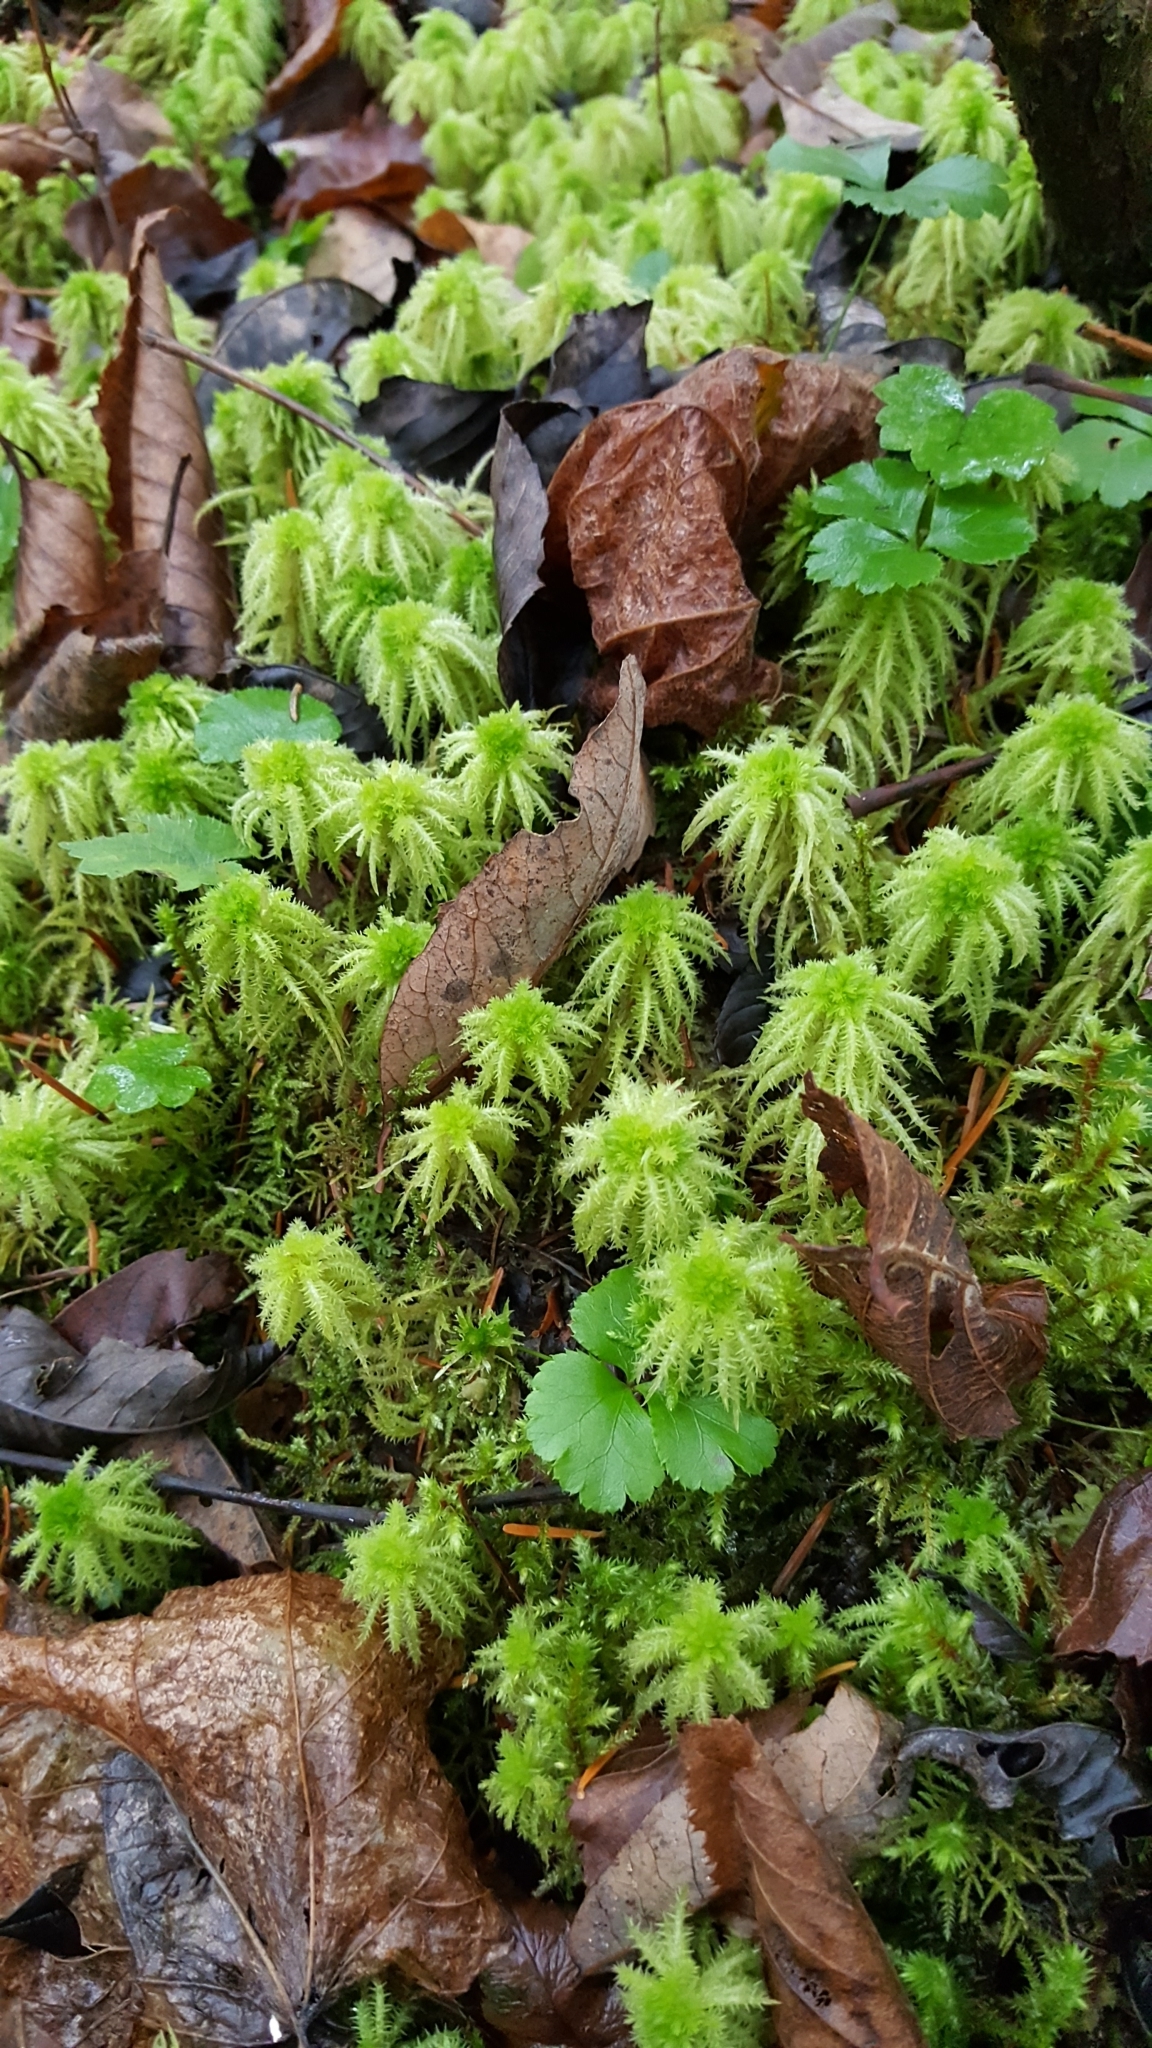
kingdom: Plantae
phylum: Bryophyta
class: Sphagnopsida
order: Sphagnales
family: Sphagnaceae
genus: Sphagnum
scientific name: Sphagnum squarrosum
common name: Shaggy peat moss
